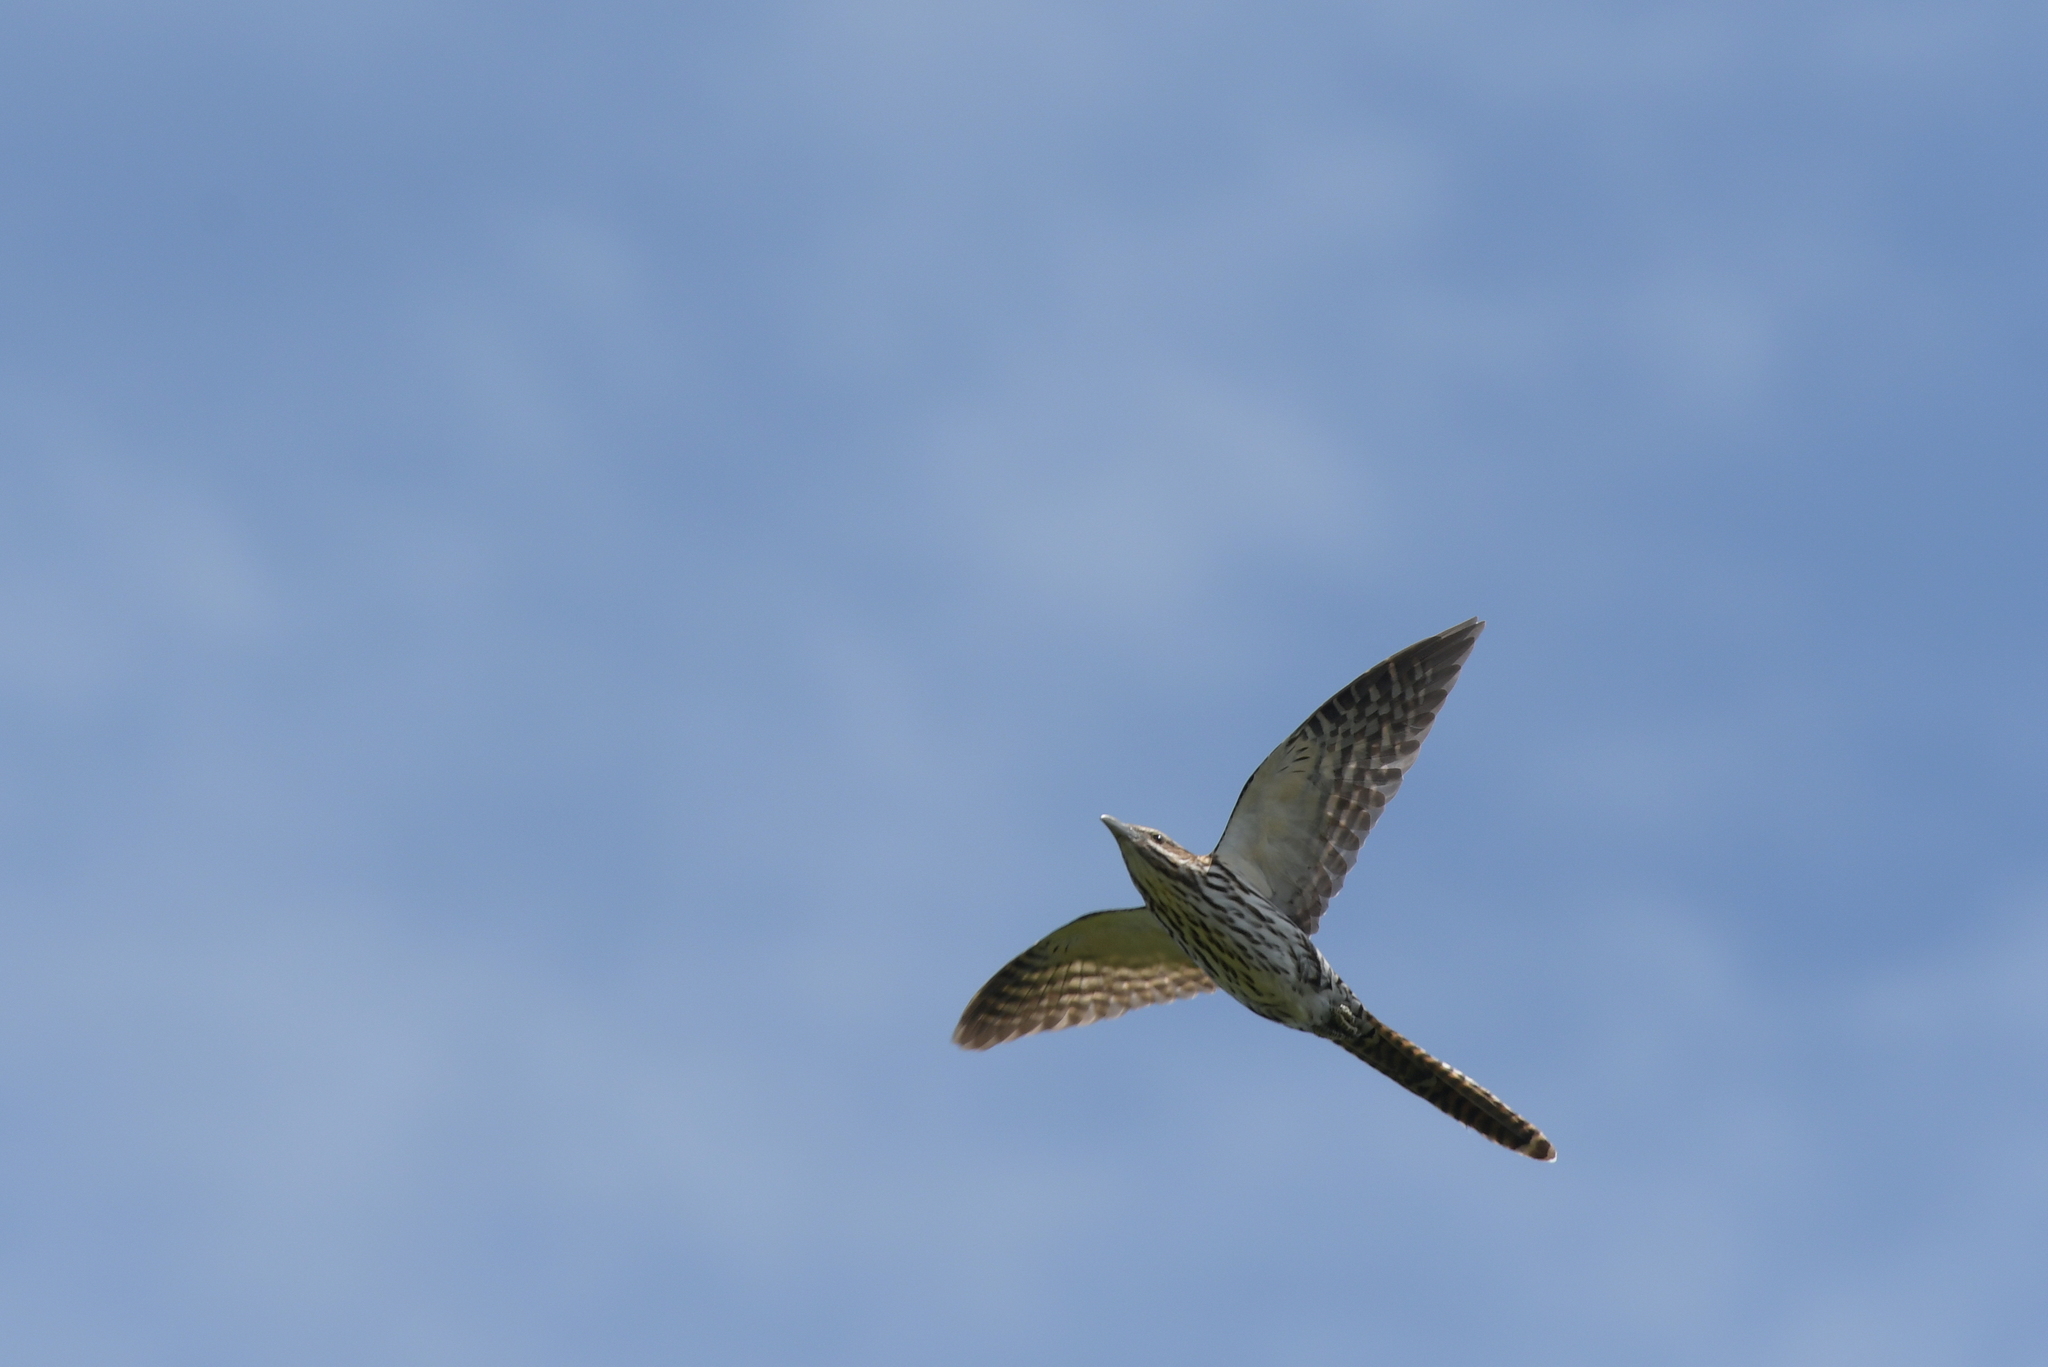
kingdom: Animalia
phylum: Chordata
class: Aves
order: Cuculiformes
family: Cuculidae
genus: Urodynamis
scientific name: Urodynamis taitensis
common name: Long-tailed koel
